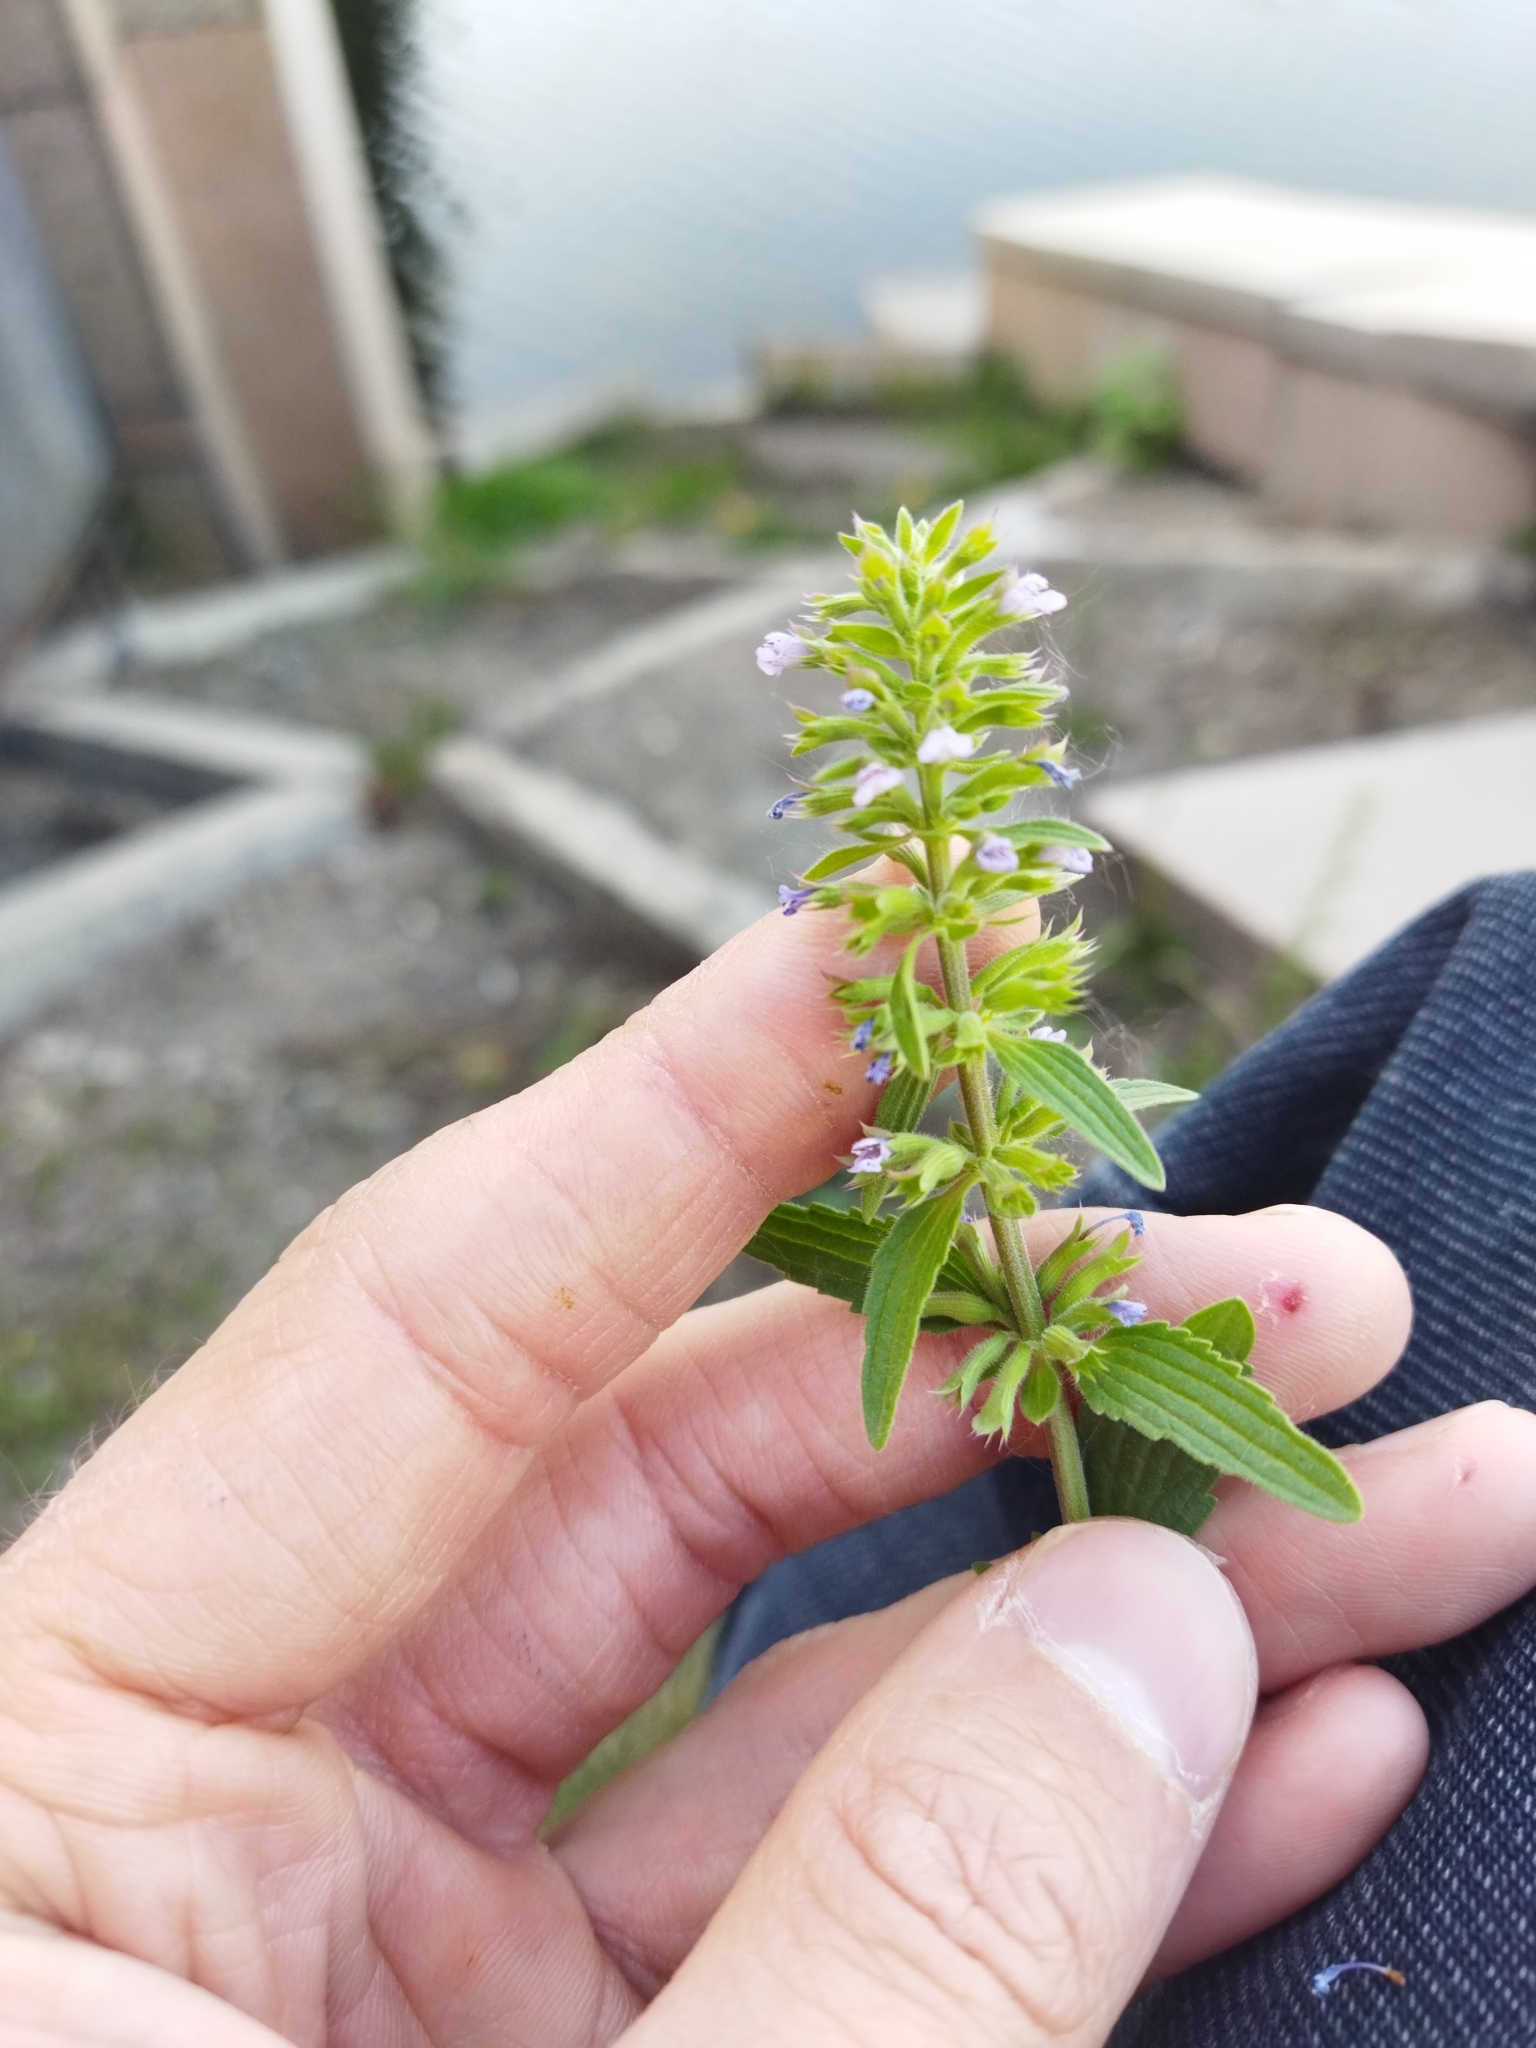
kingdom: Plantae
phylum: Tracheophyta
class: Magnoliopsida
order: Lamiales
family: Lamiaceae
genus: Dracocephalum
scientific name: Dracocephalum thymiflorum
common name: Thymeleaf dragonhead
